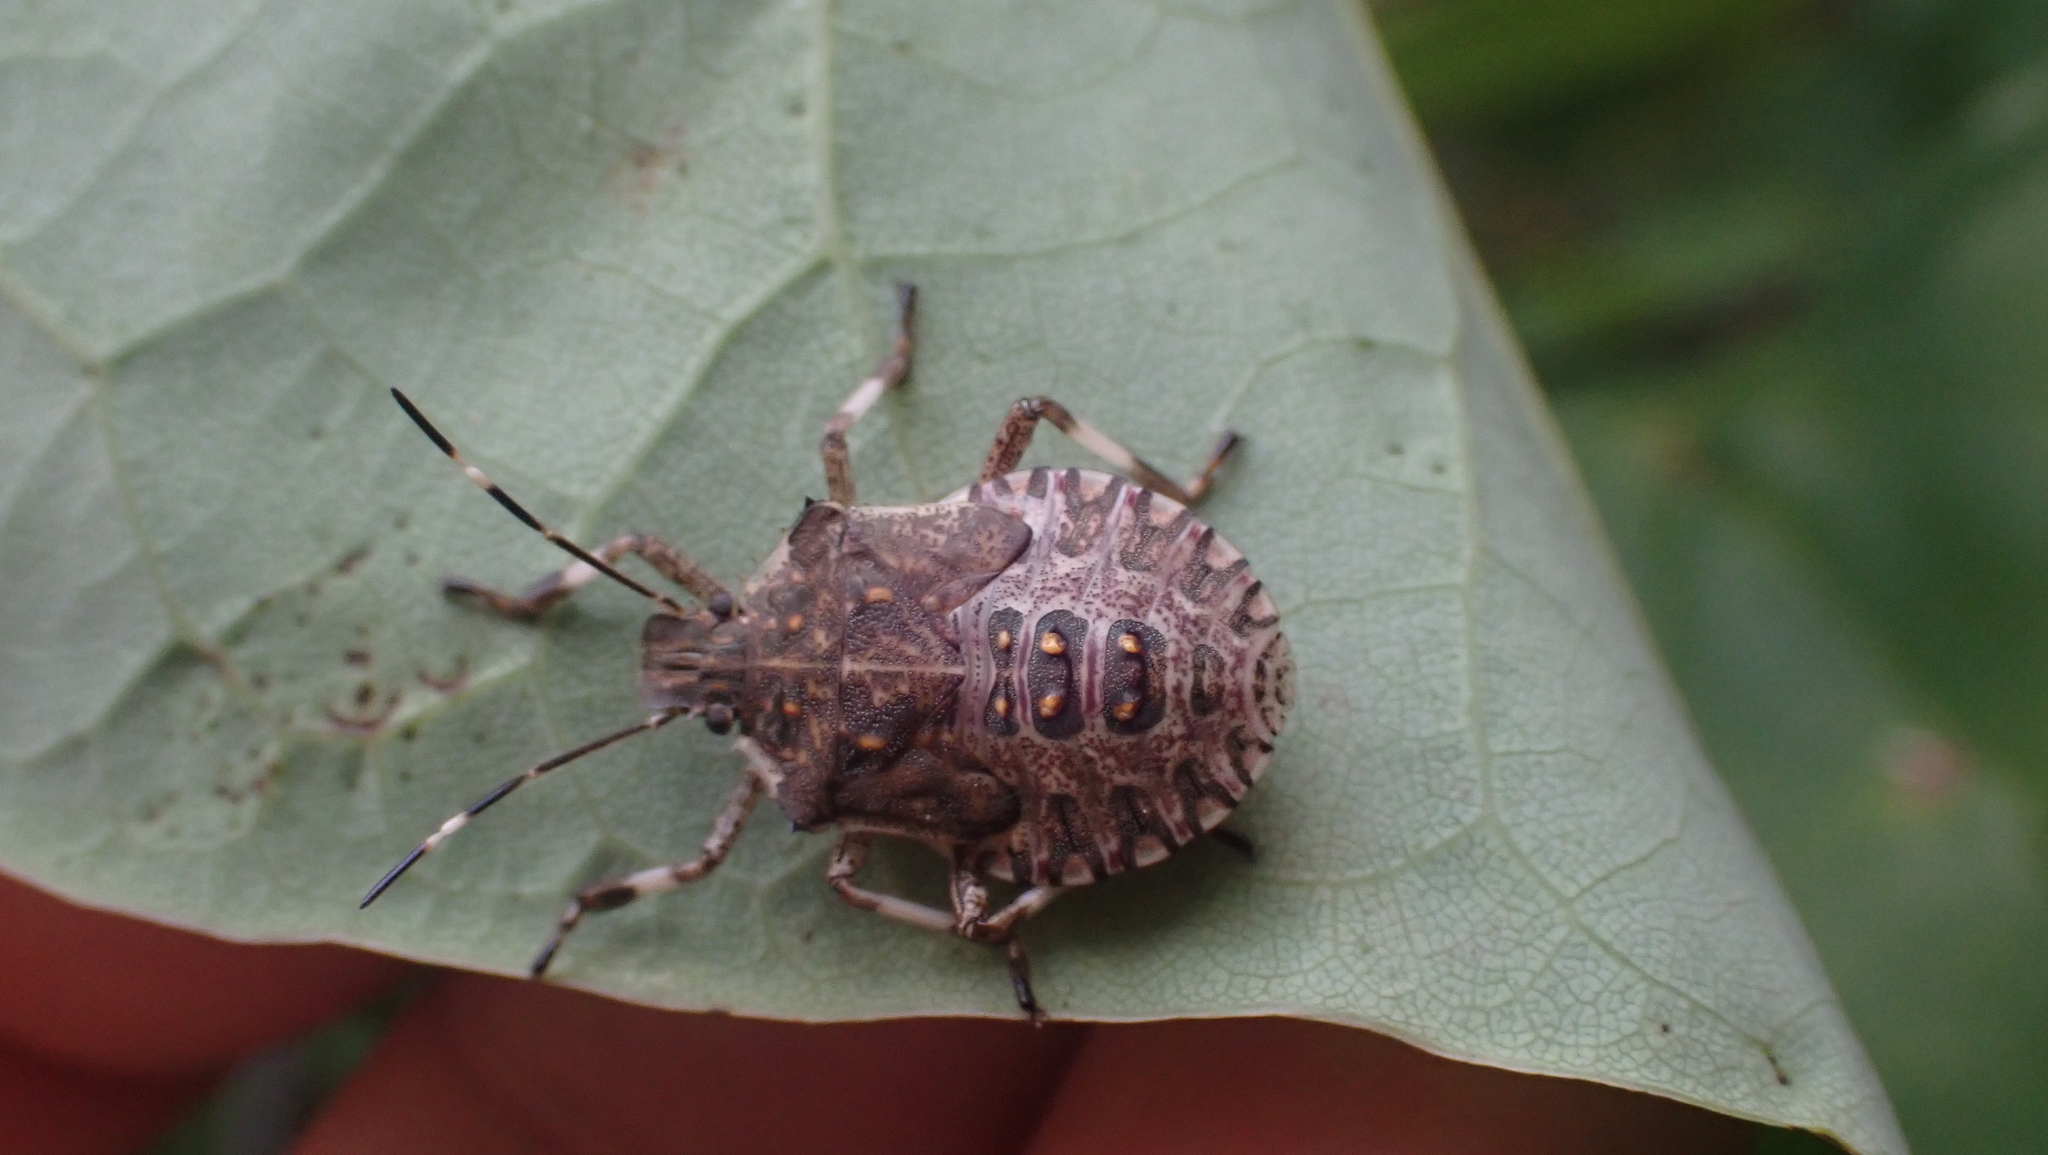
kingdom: Animalia
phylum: Arthropoda
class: Insecta
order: Hemiptera
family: Pentatomidae
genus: Halyomorpha
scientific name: Halyomorpha halys
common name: Brown marmorated stink bug
